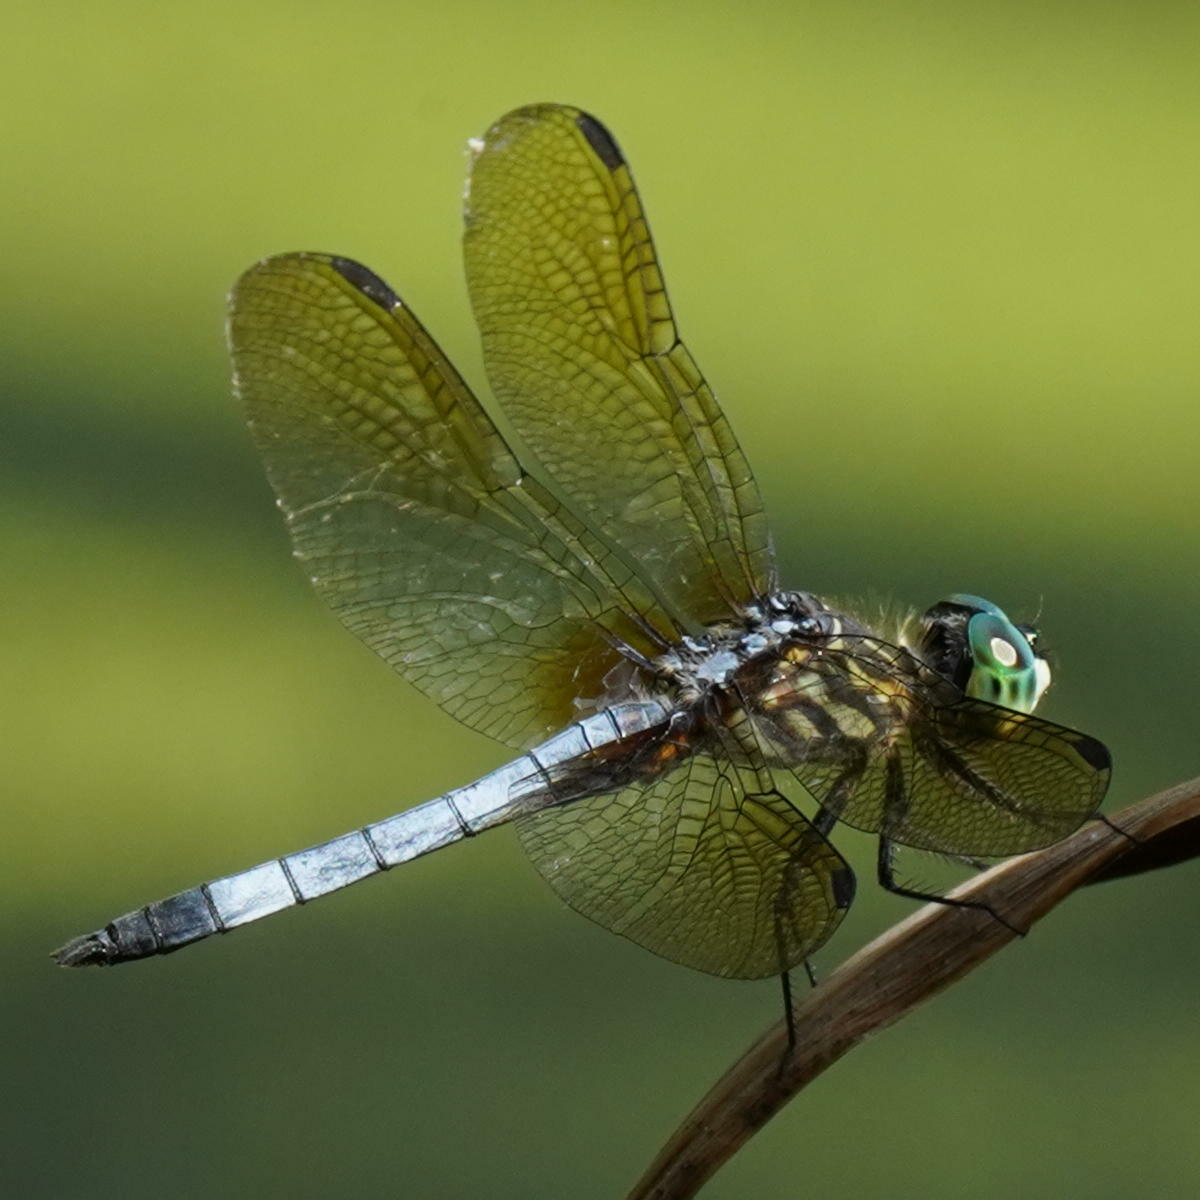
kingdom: Animalia
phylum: Arthropoda
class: Insecta
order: Odonata
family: Libellulidae
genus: Pachydiplax
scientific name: Pachydiplax longipennis
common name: Blue dasher
